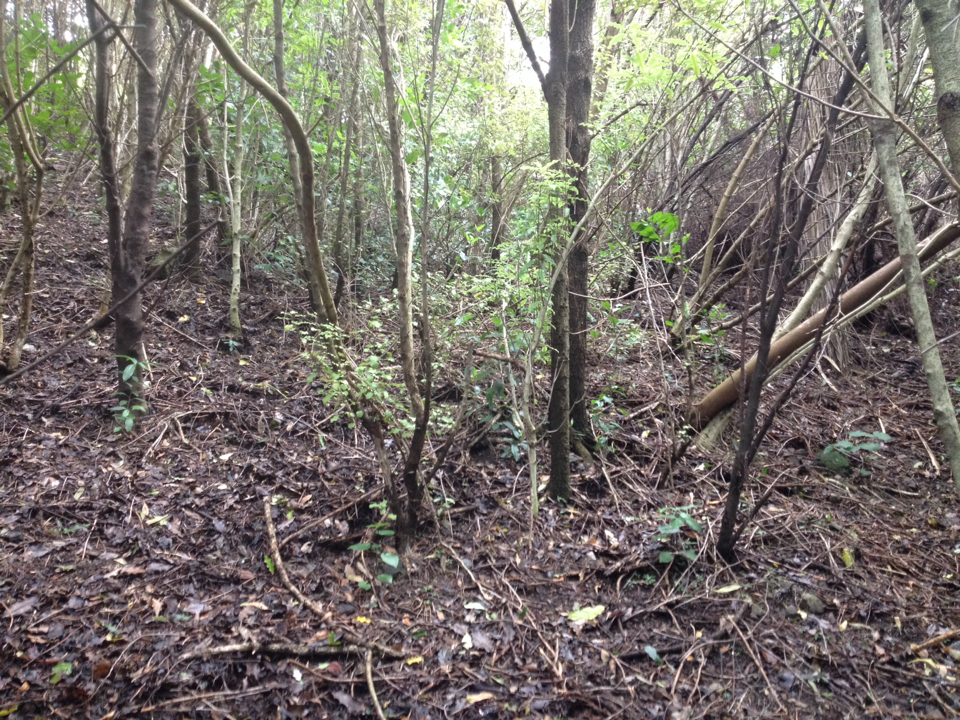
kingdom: Plantae
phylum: Tracheophyta
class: Magnoliopsida
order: Asterales
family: Asteraceae
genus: Olearia
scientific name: Olearia paniculata
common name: Akiraho
